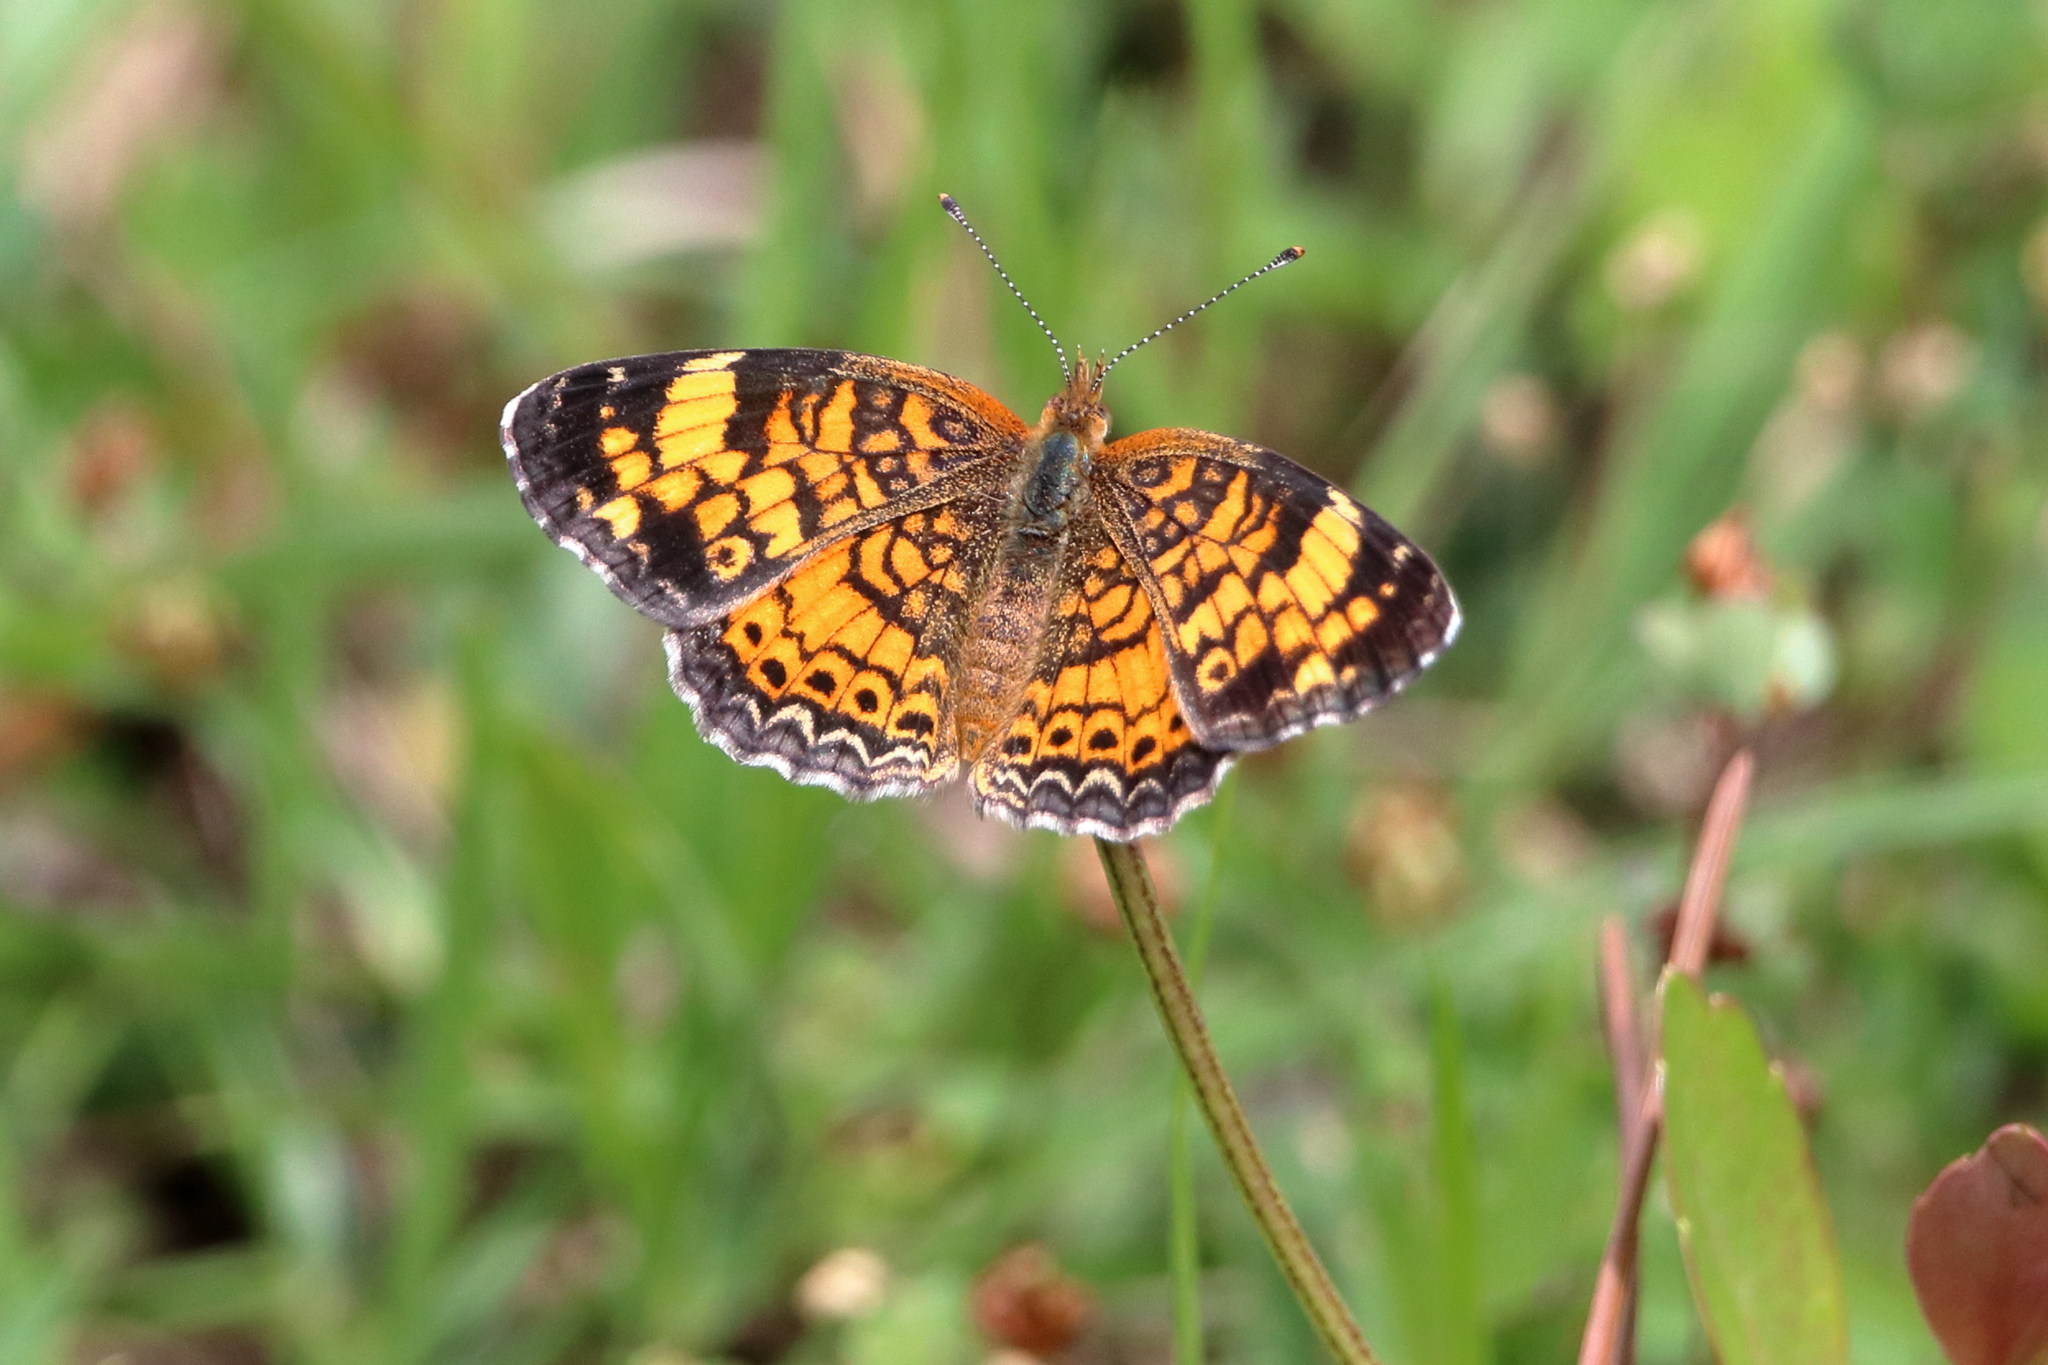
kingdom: Animalia
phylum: Arthropoda
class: Insecta
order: Lepidoptera
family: Nymphalidae
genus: Phyciodes
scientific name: Phyciodes tharos
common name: Pearl crescent
